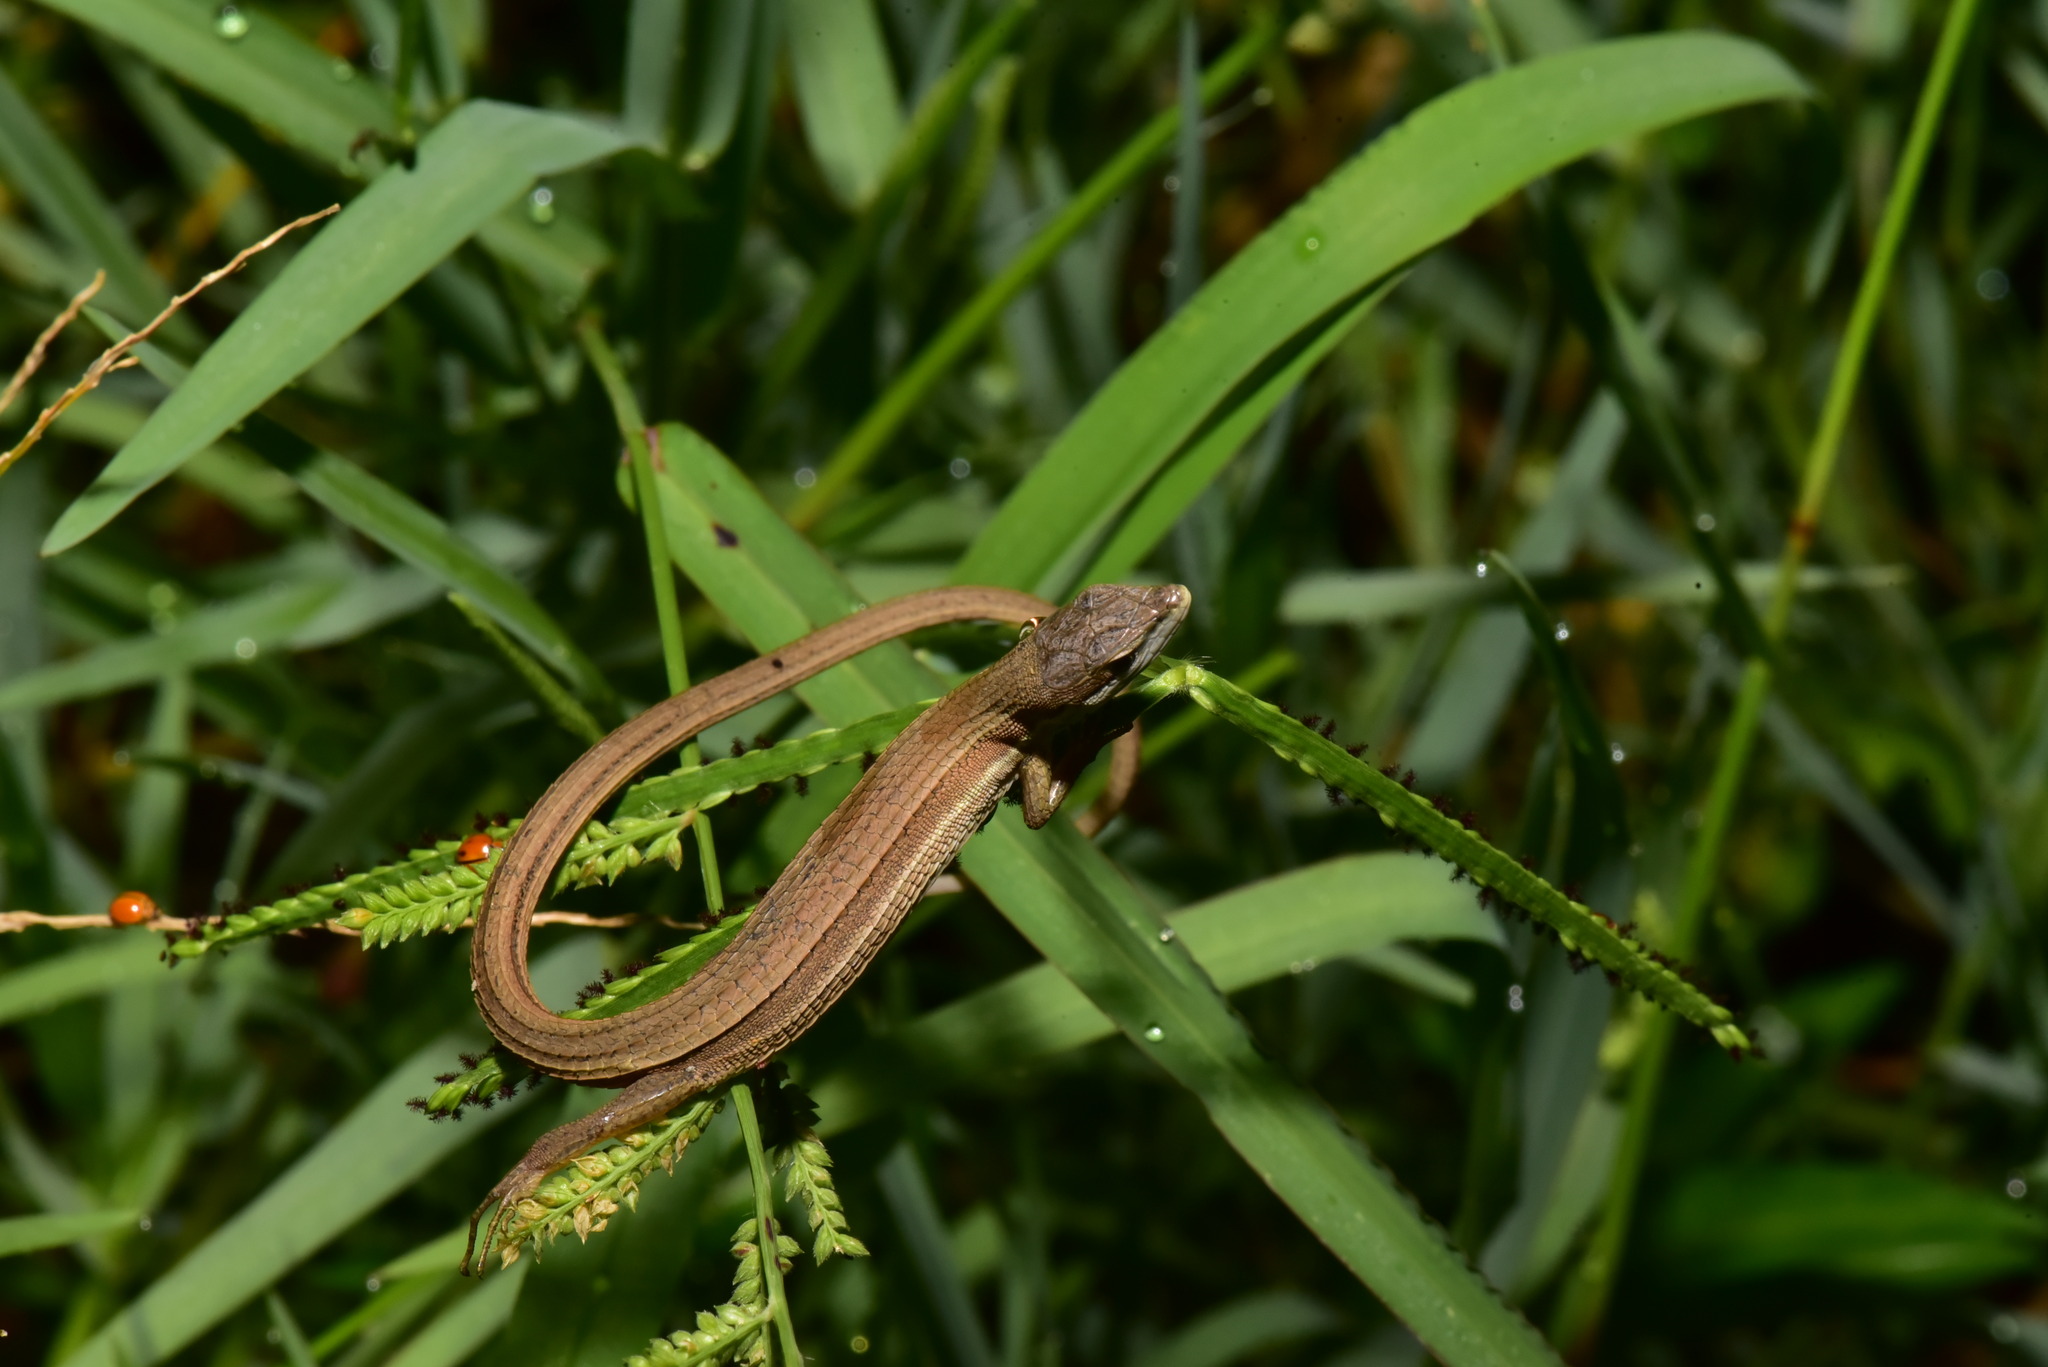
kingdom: Animalia
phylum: Chordata
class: Squamata
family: Lacertidae
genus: Takydromus
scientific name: Takydromus luyeanus
